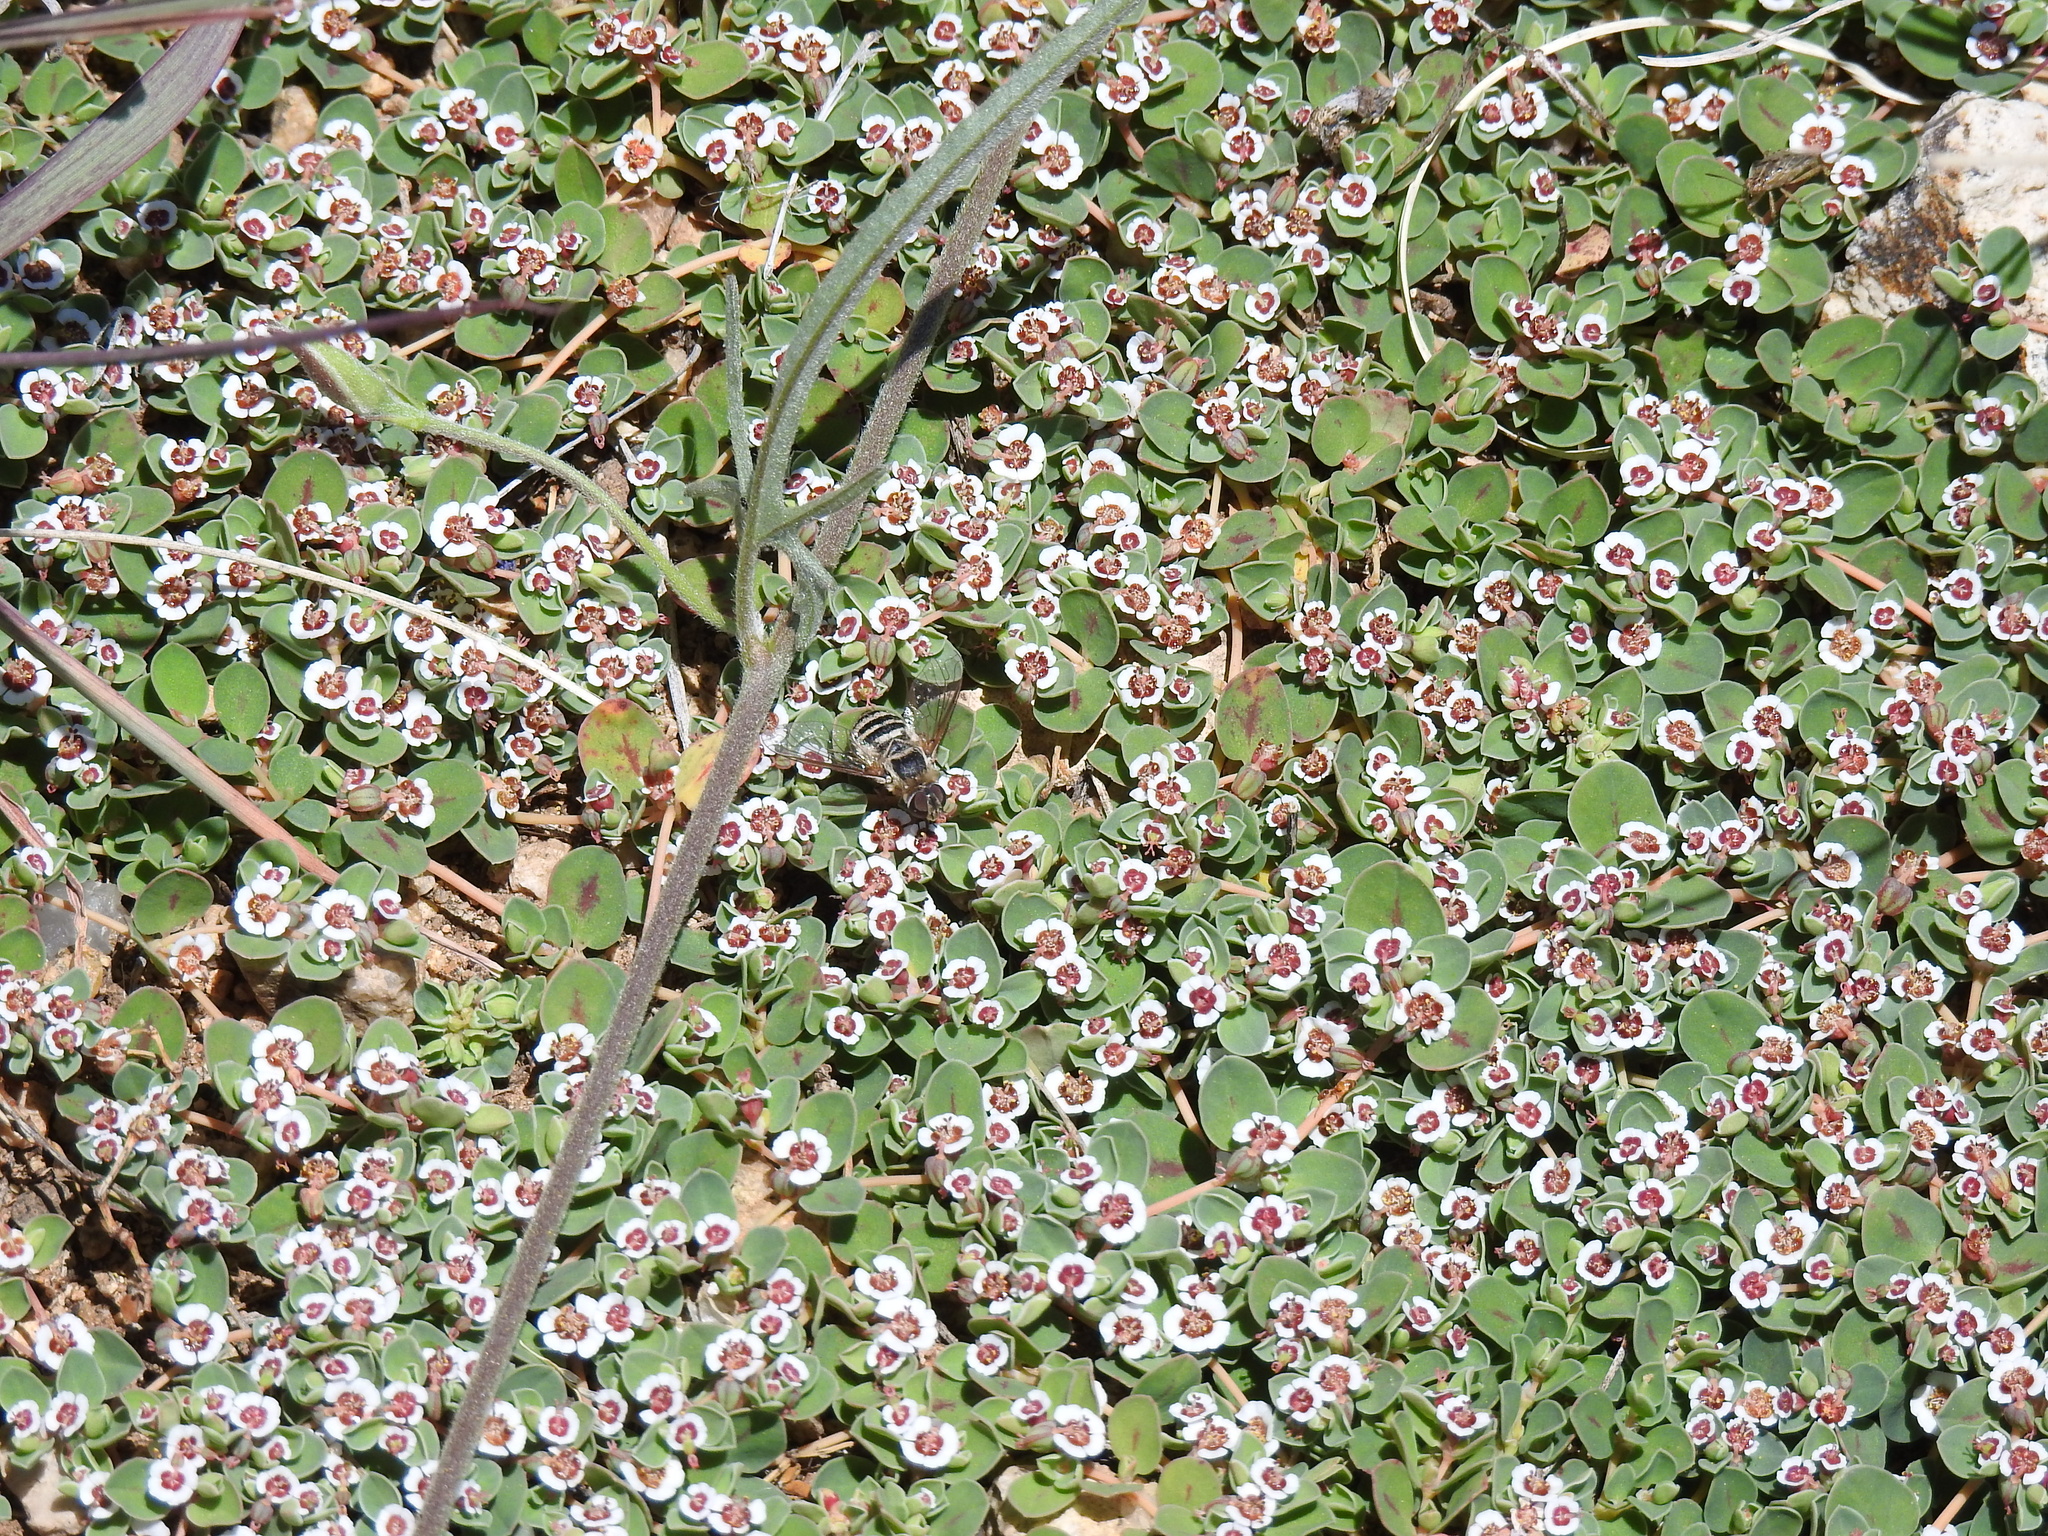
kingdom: Plantae
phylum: Tracheophyta
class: Magnoliopsida
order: Malpighiales
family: Euphorbiaceae
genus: Euphorbia
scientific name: Euphorbia albomarginata
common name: Whitemargin sandmat
